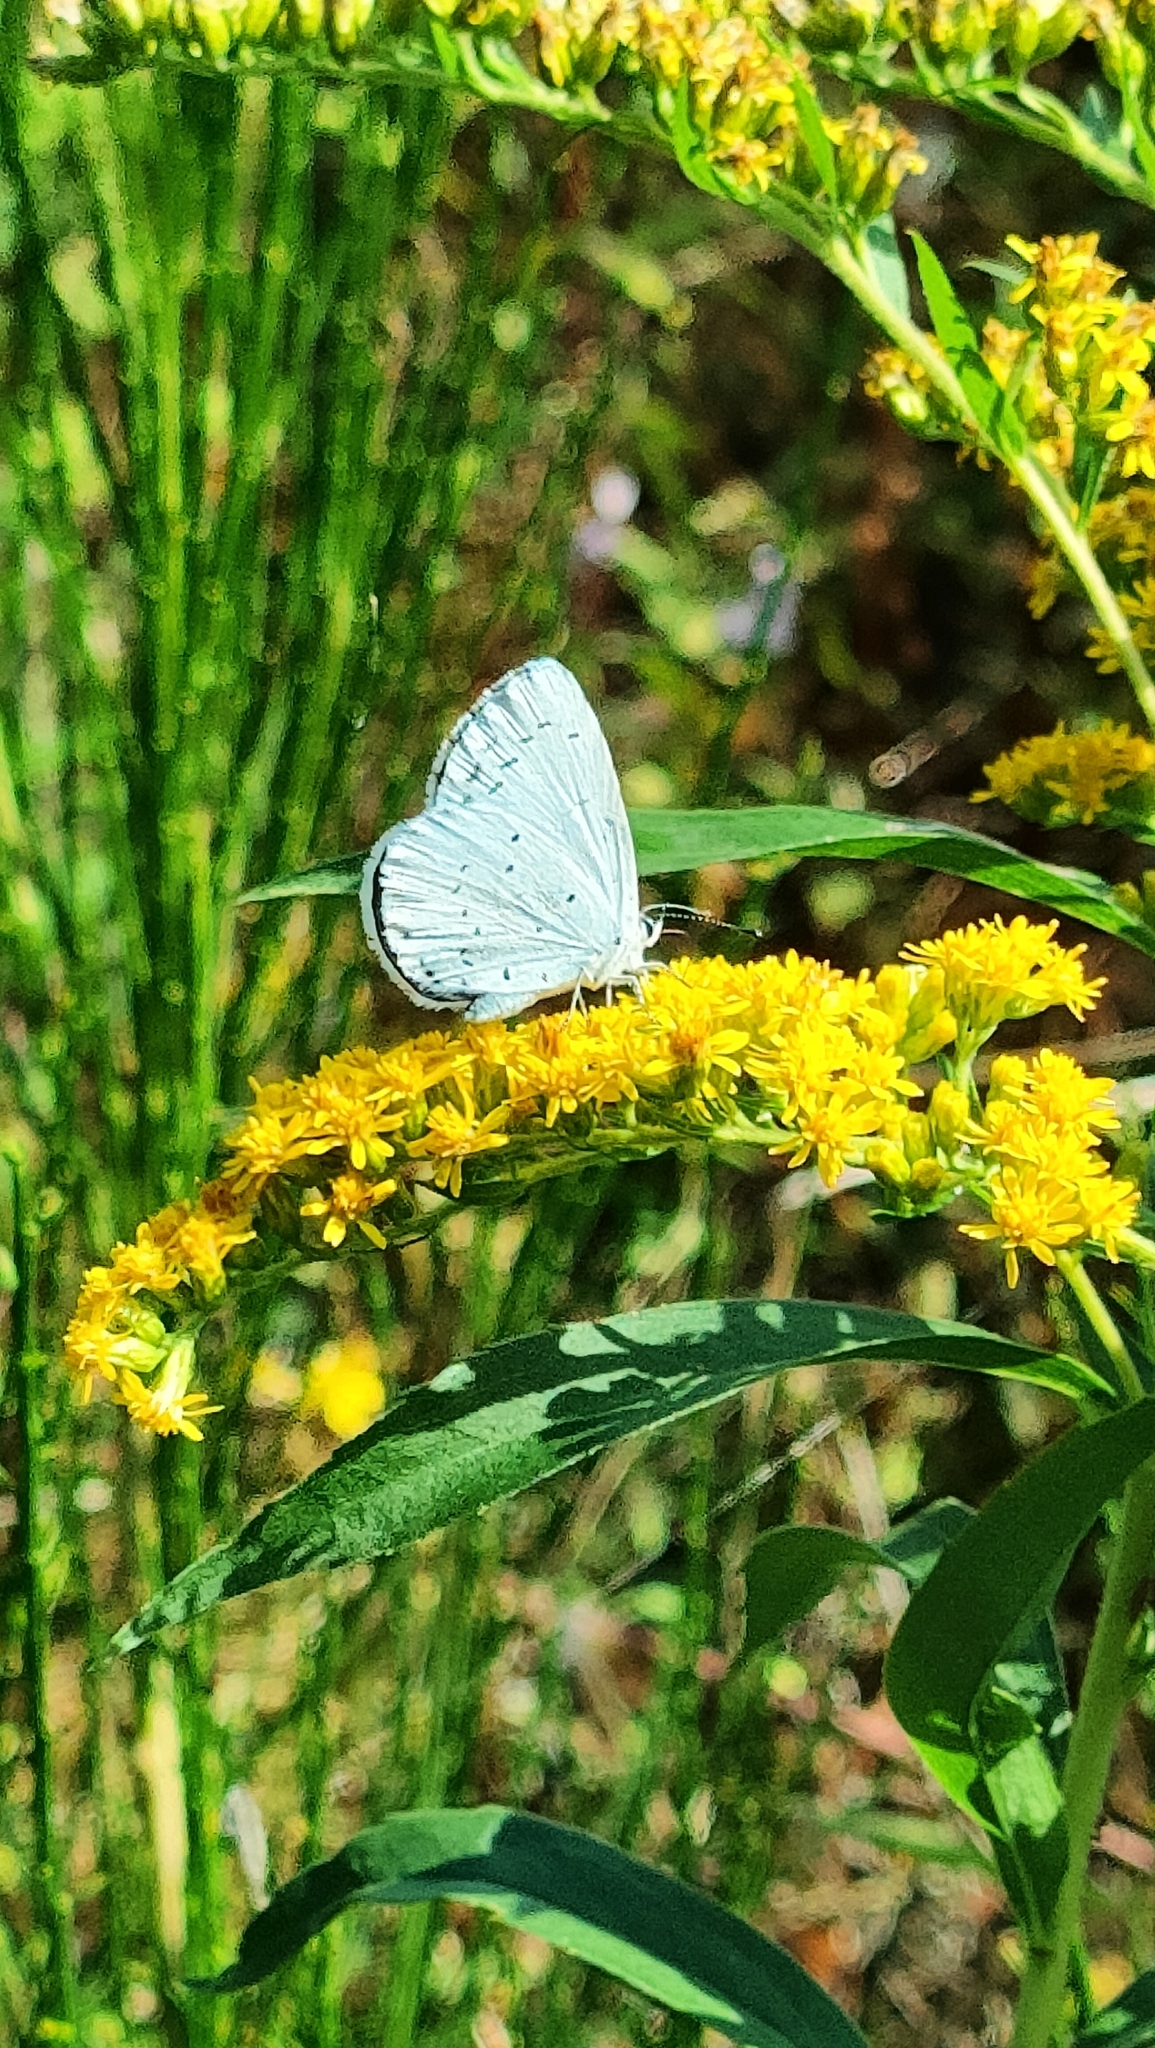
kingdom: Animalia
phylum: Arthropoda
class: Insecta
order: Lepidoptera
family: Lycaenidae
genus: Celastrina
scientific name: Celastrina argiolus
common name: Holly blue
